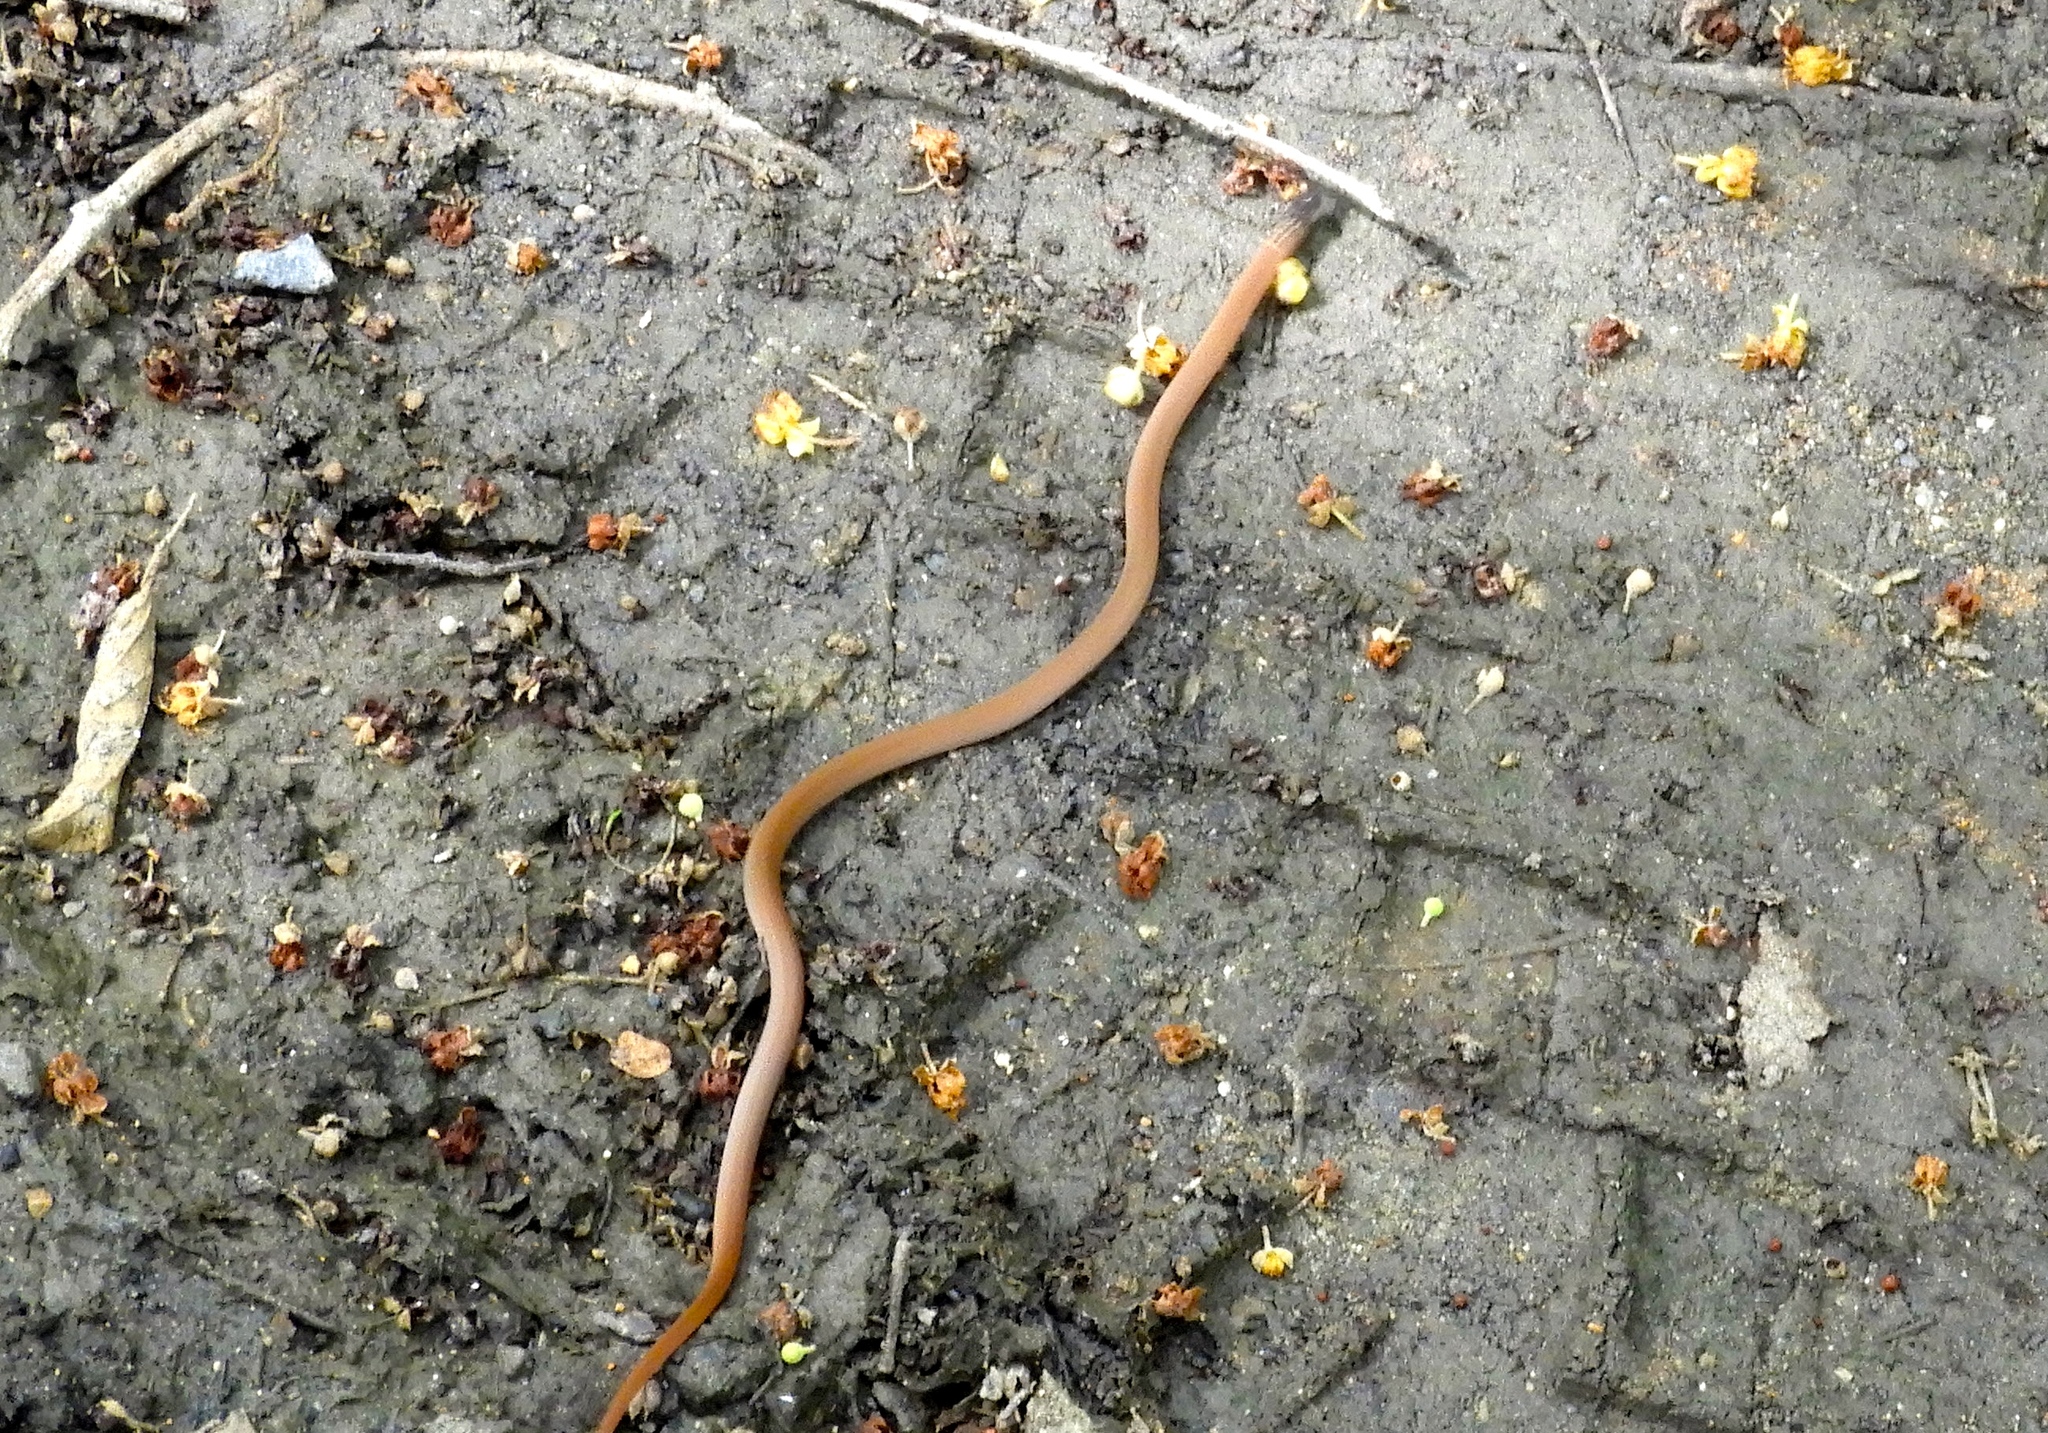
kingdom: Animalia
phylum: Chordata
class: Squamata
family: Colubridae
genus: Tantilla
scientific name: Tantilla yaquia
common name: Yaqui black-headed snake
